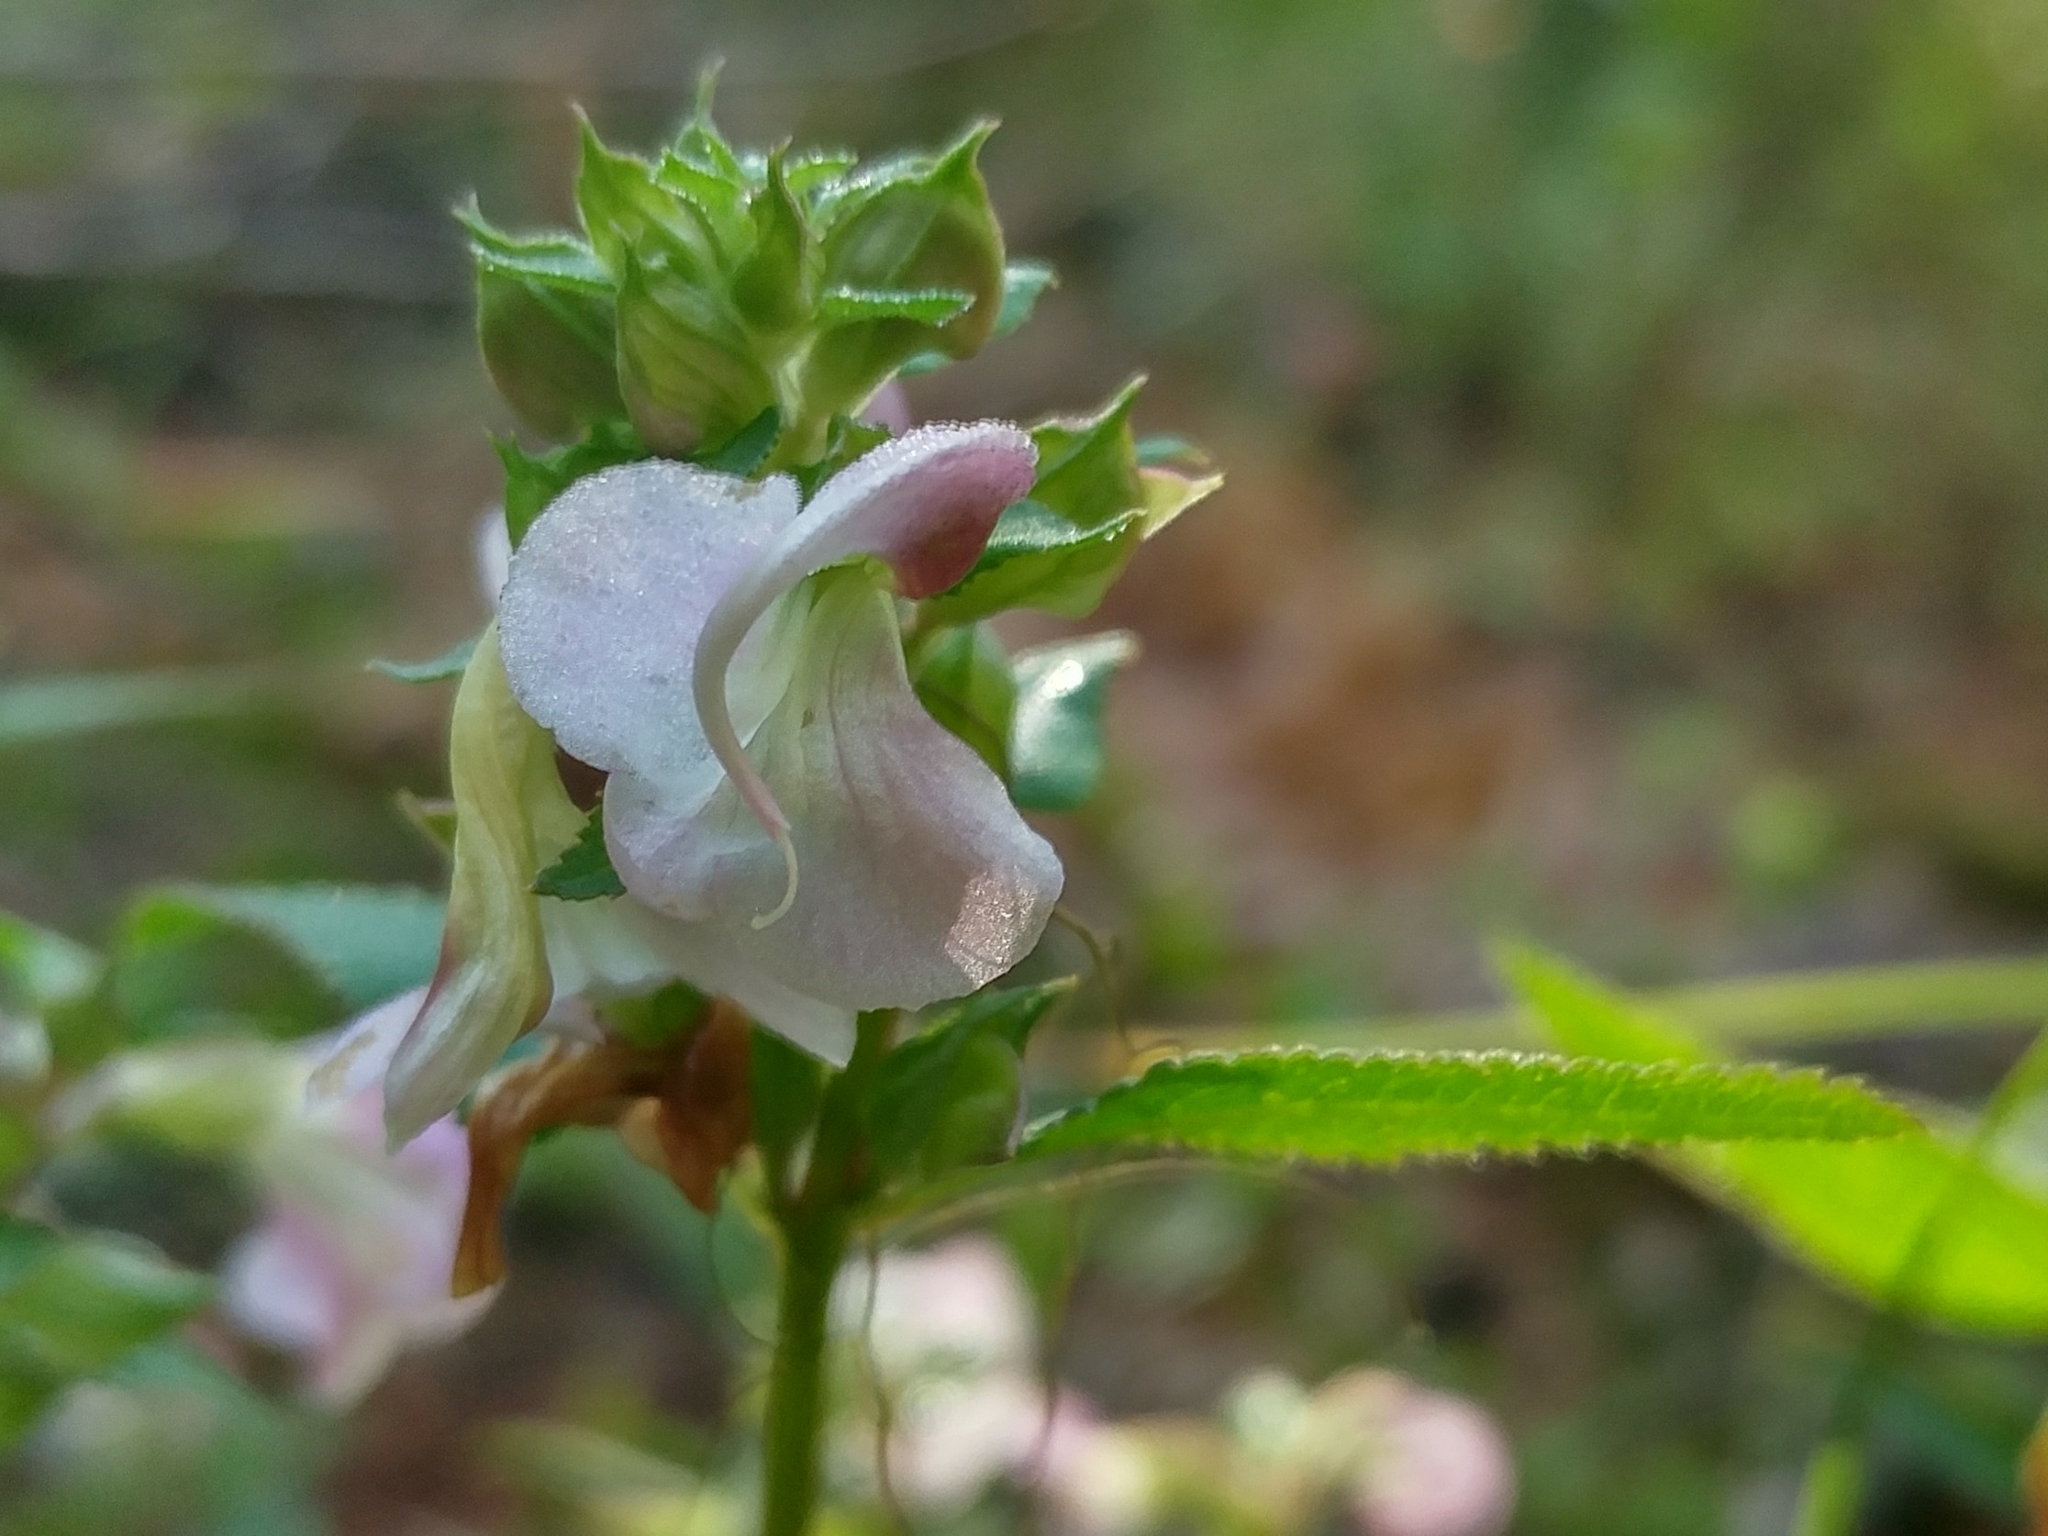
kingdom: Plantae
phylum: Tracheophyta
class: Magnoliopsida
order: Lamiales
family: Orobanchaceae
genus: Pedicularis
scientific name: Pedicularis racemosa
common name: Leafy lousewort
